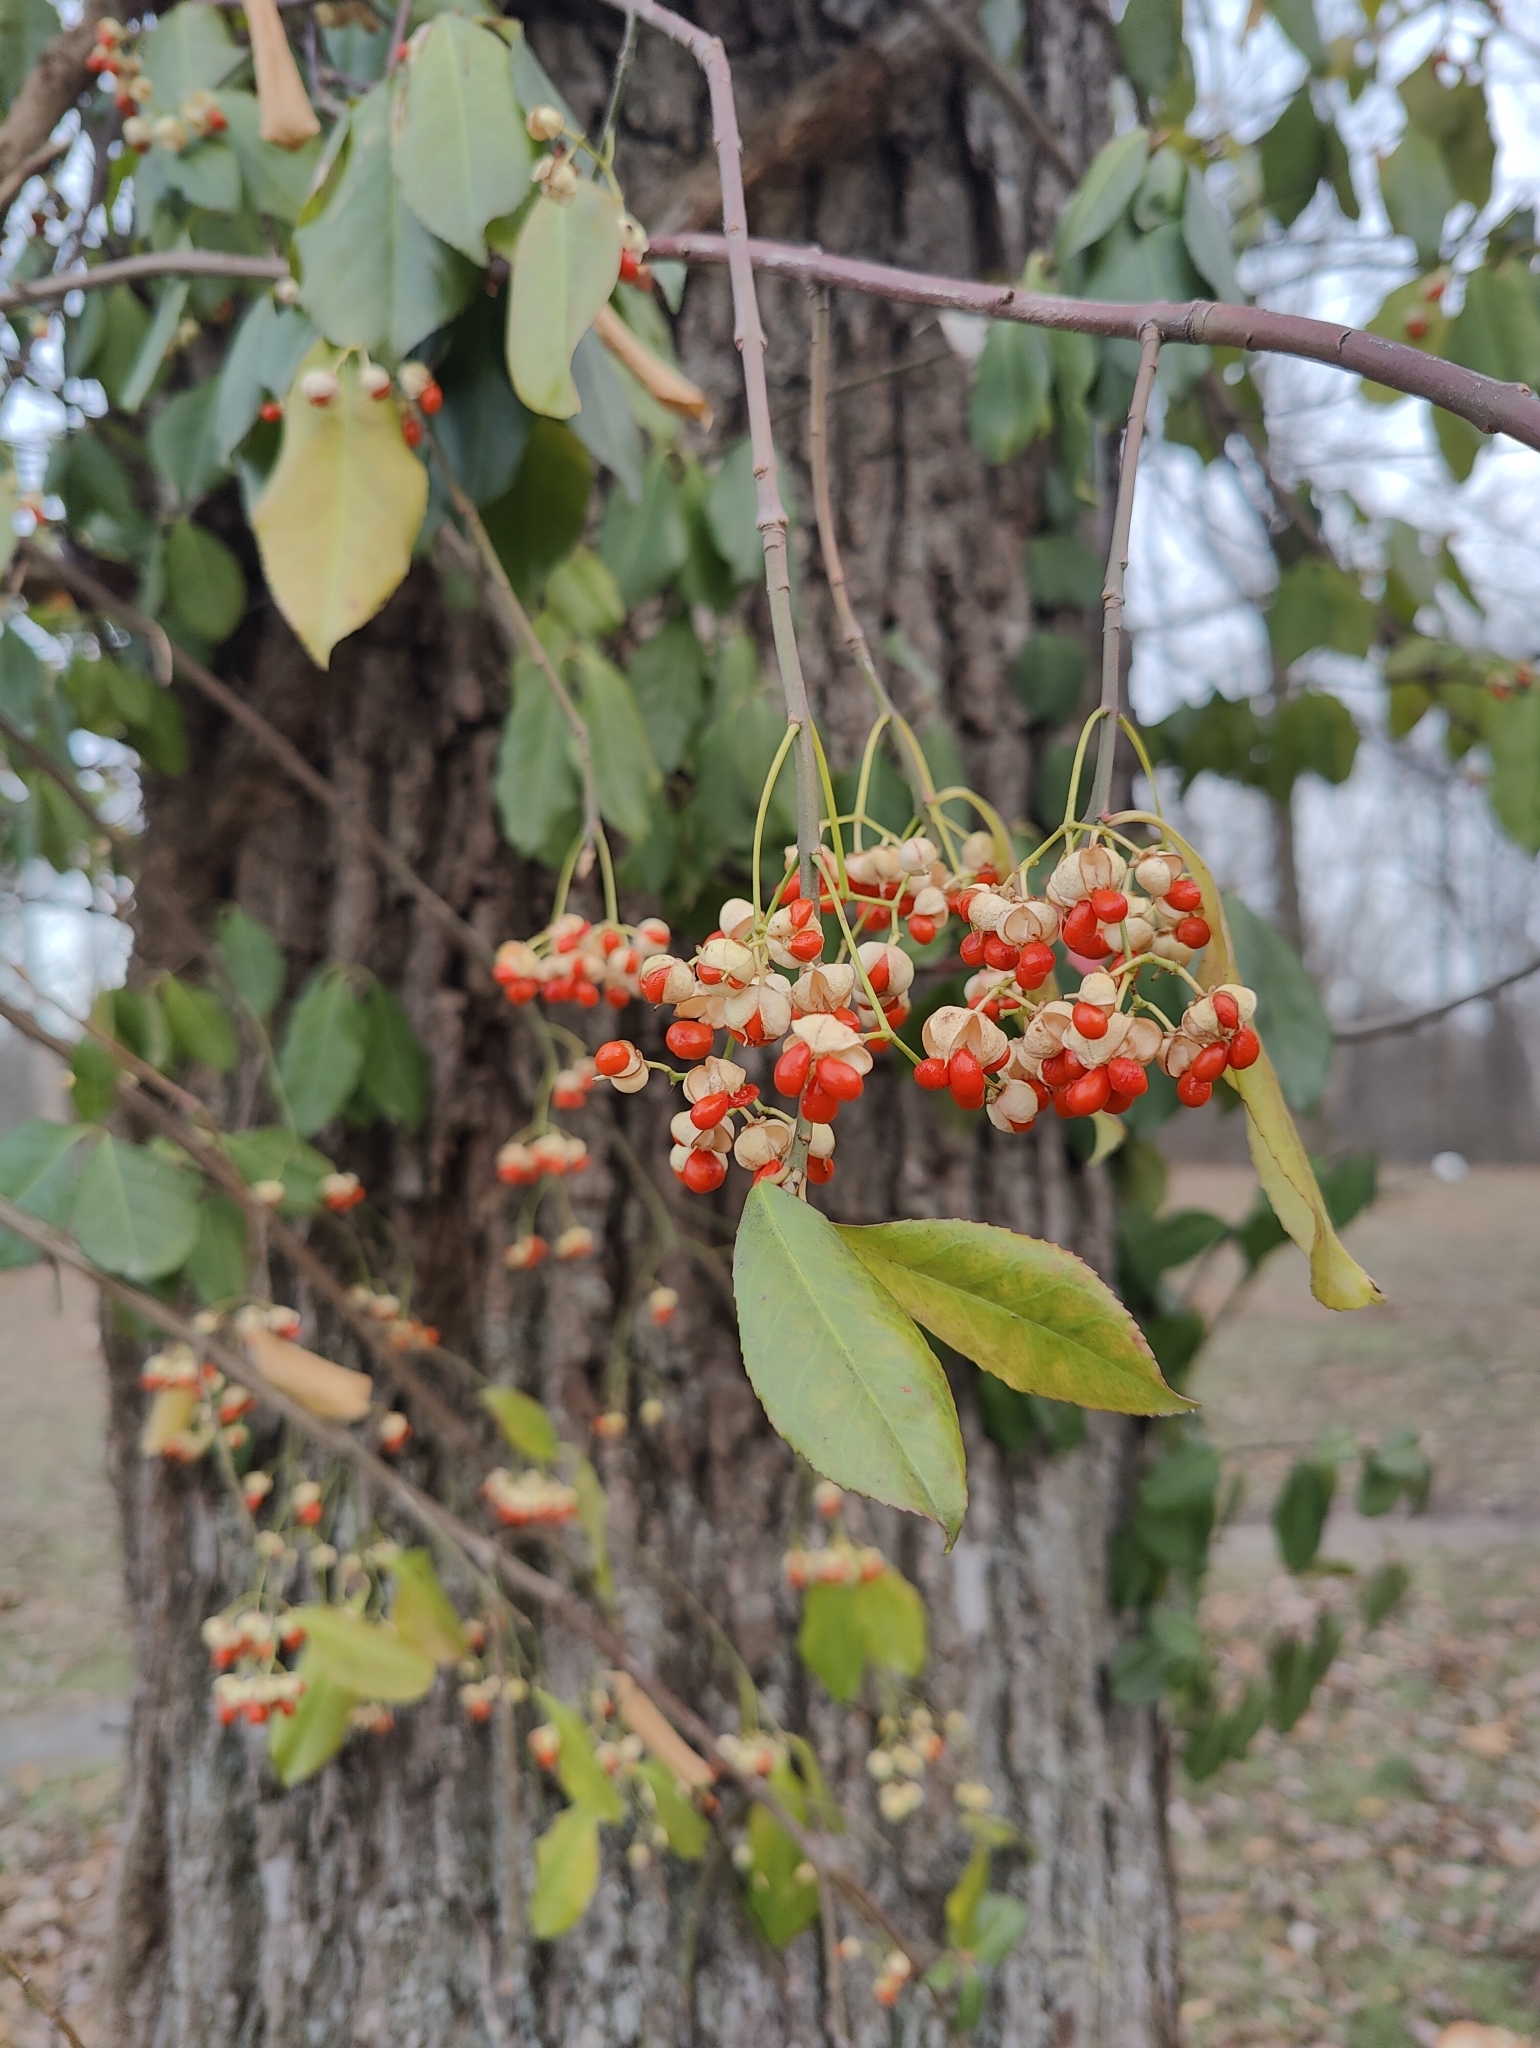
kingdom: Plantae
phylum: Tracheophyta
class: Magnoliopsida
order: Celastrales
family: Celastraceae
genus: Euonymus
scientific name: Euonymus fortunei
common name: Climbing euonymus
